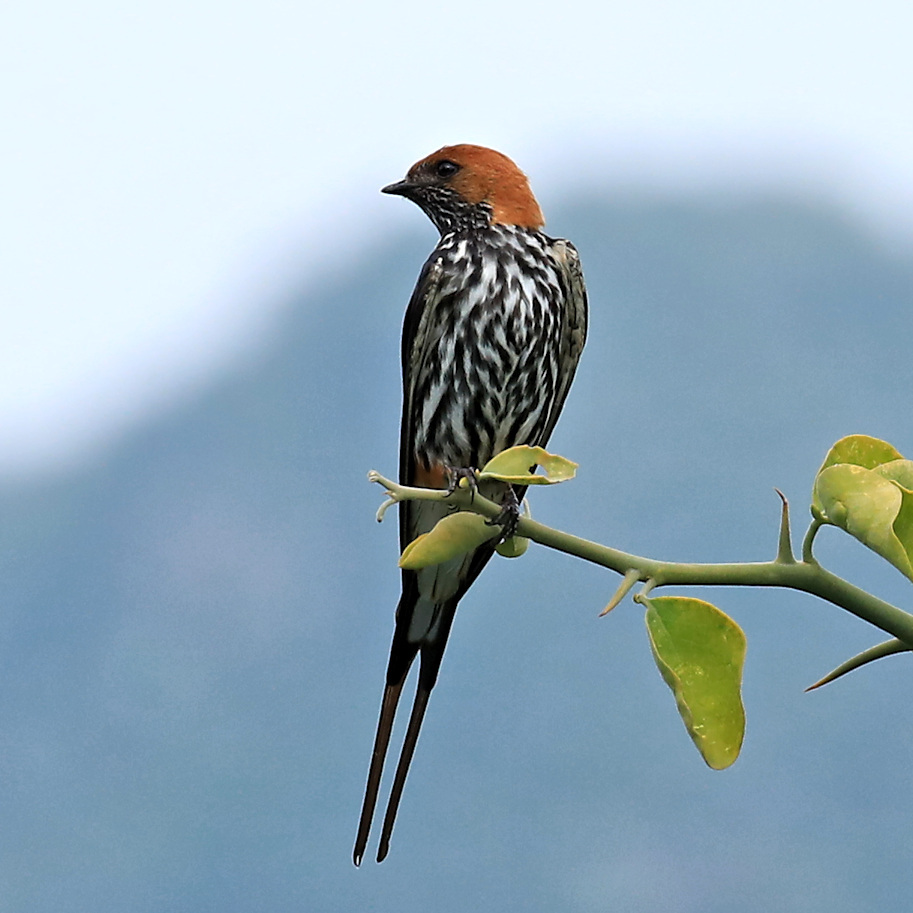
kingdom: Animalia
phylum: Chordata
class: Aves
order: Passeriformes
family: Hirundinidae
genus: Cecropis
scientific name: Cecropis abyssinica
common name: Lesser striped-swallow
